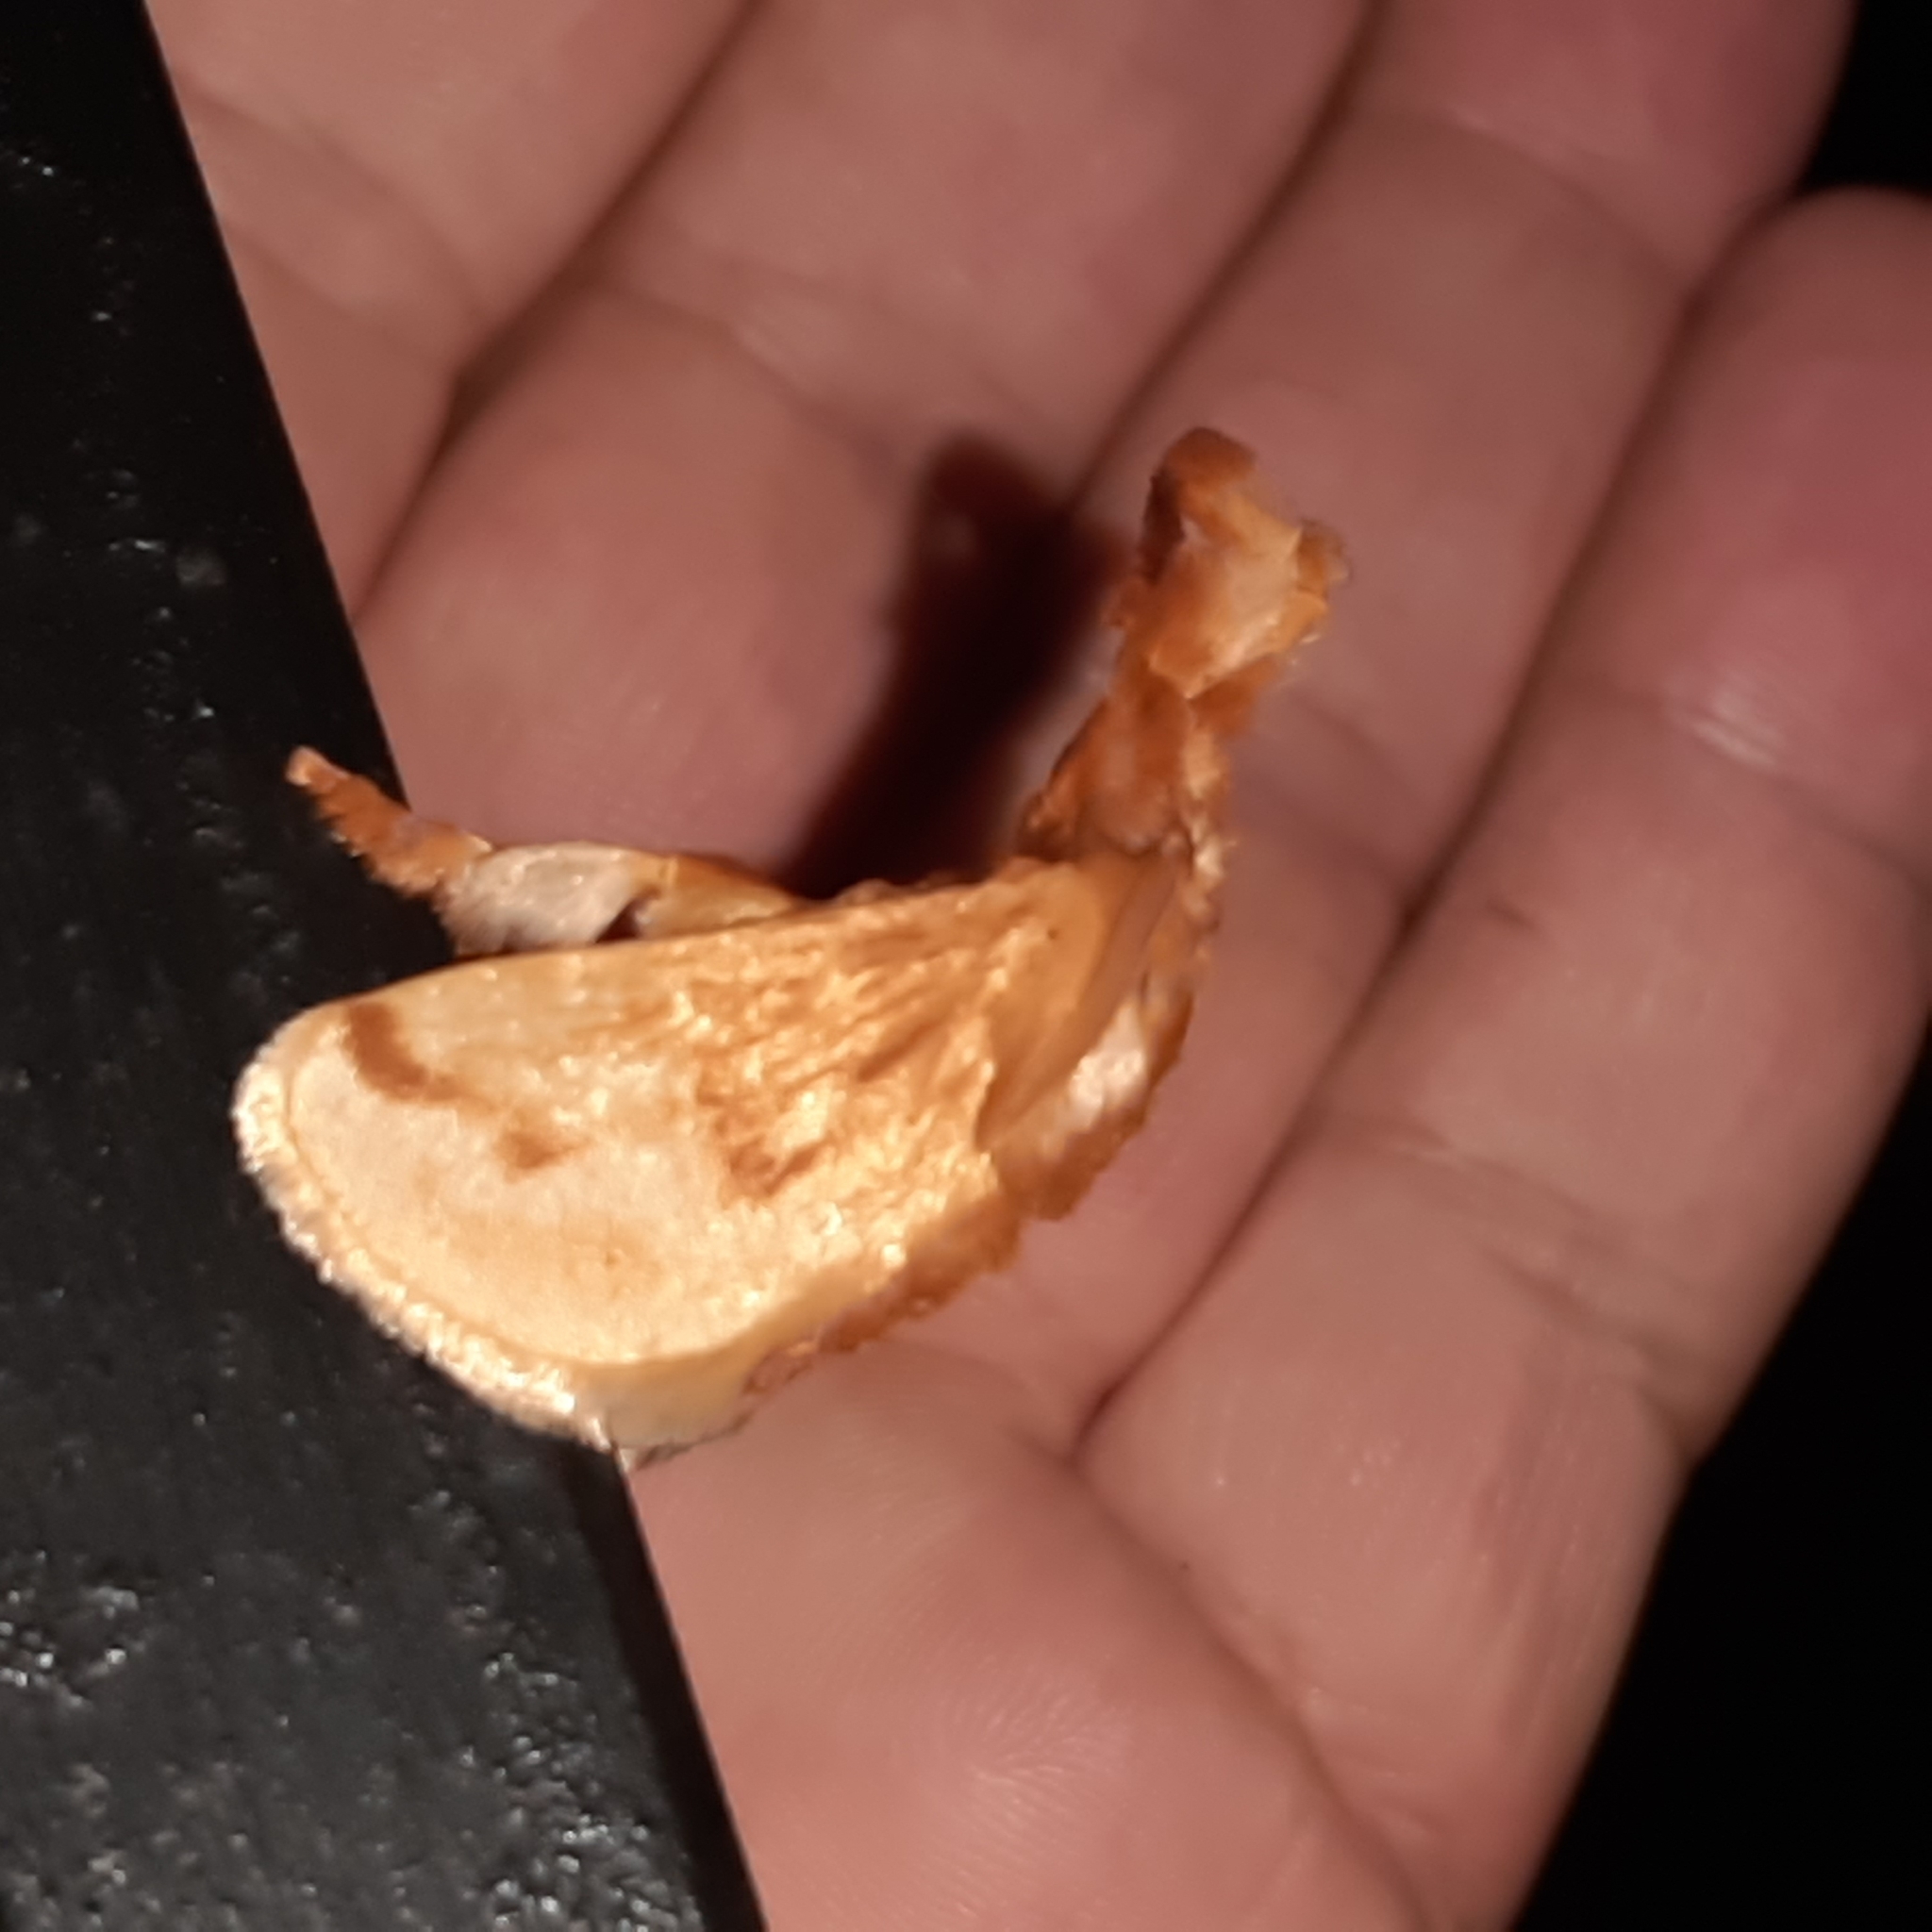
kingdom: Animalia
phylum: Arthropoda
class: Insecta
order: Lepidoptera
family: Limacodidae
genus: Perola
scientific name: Perola sericea
